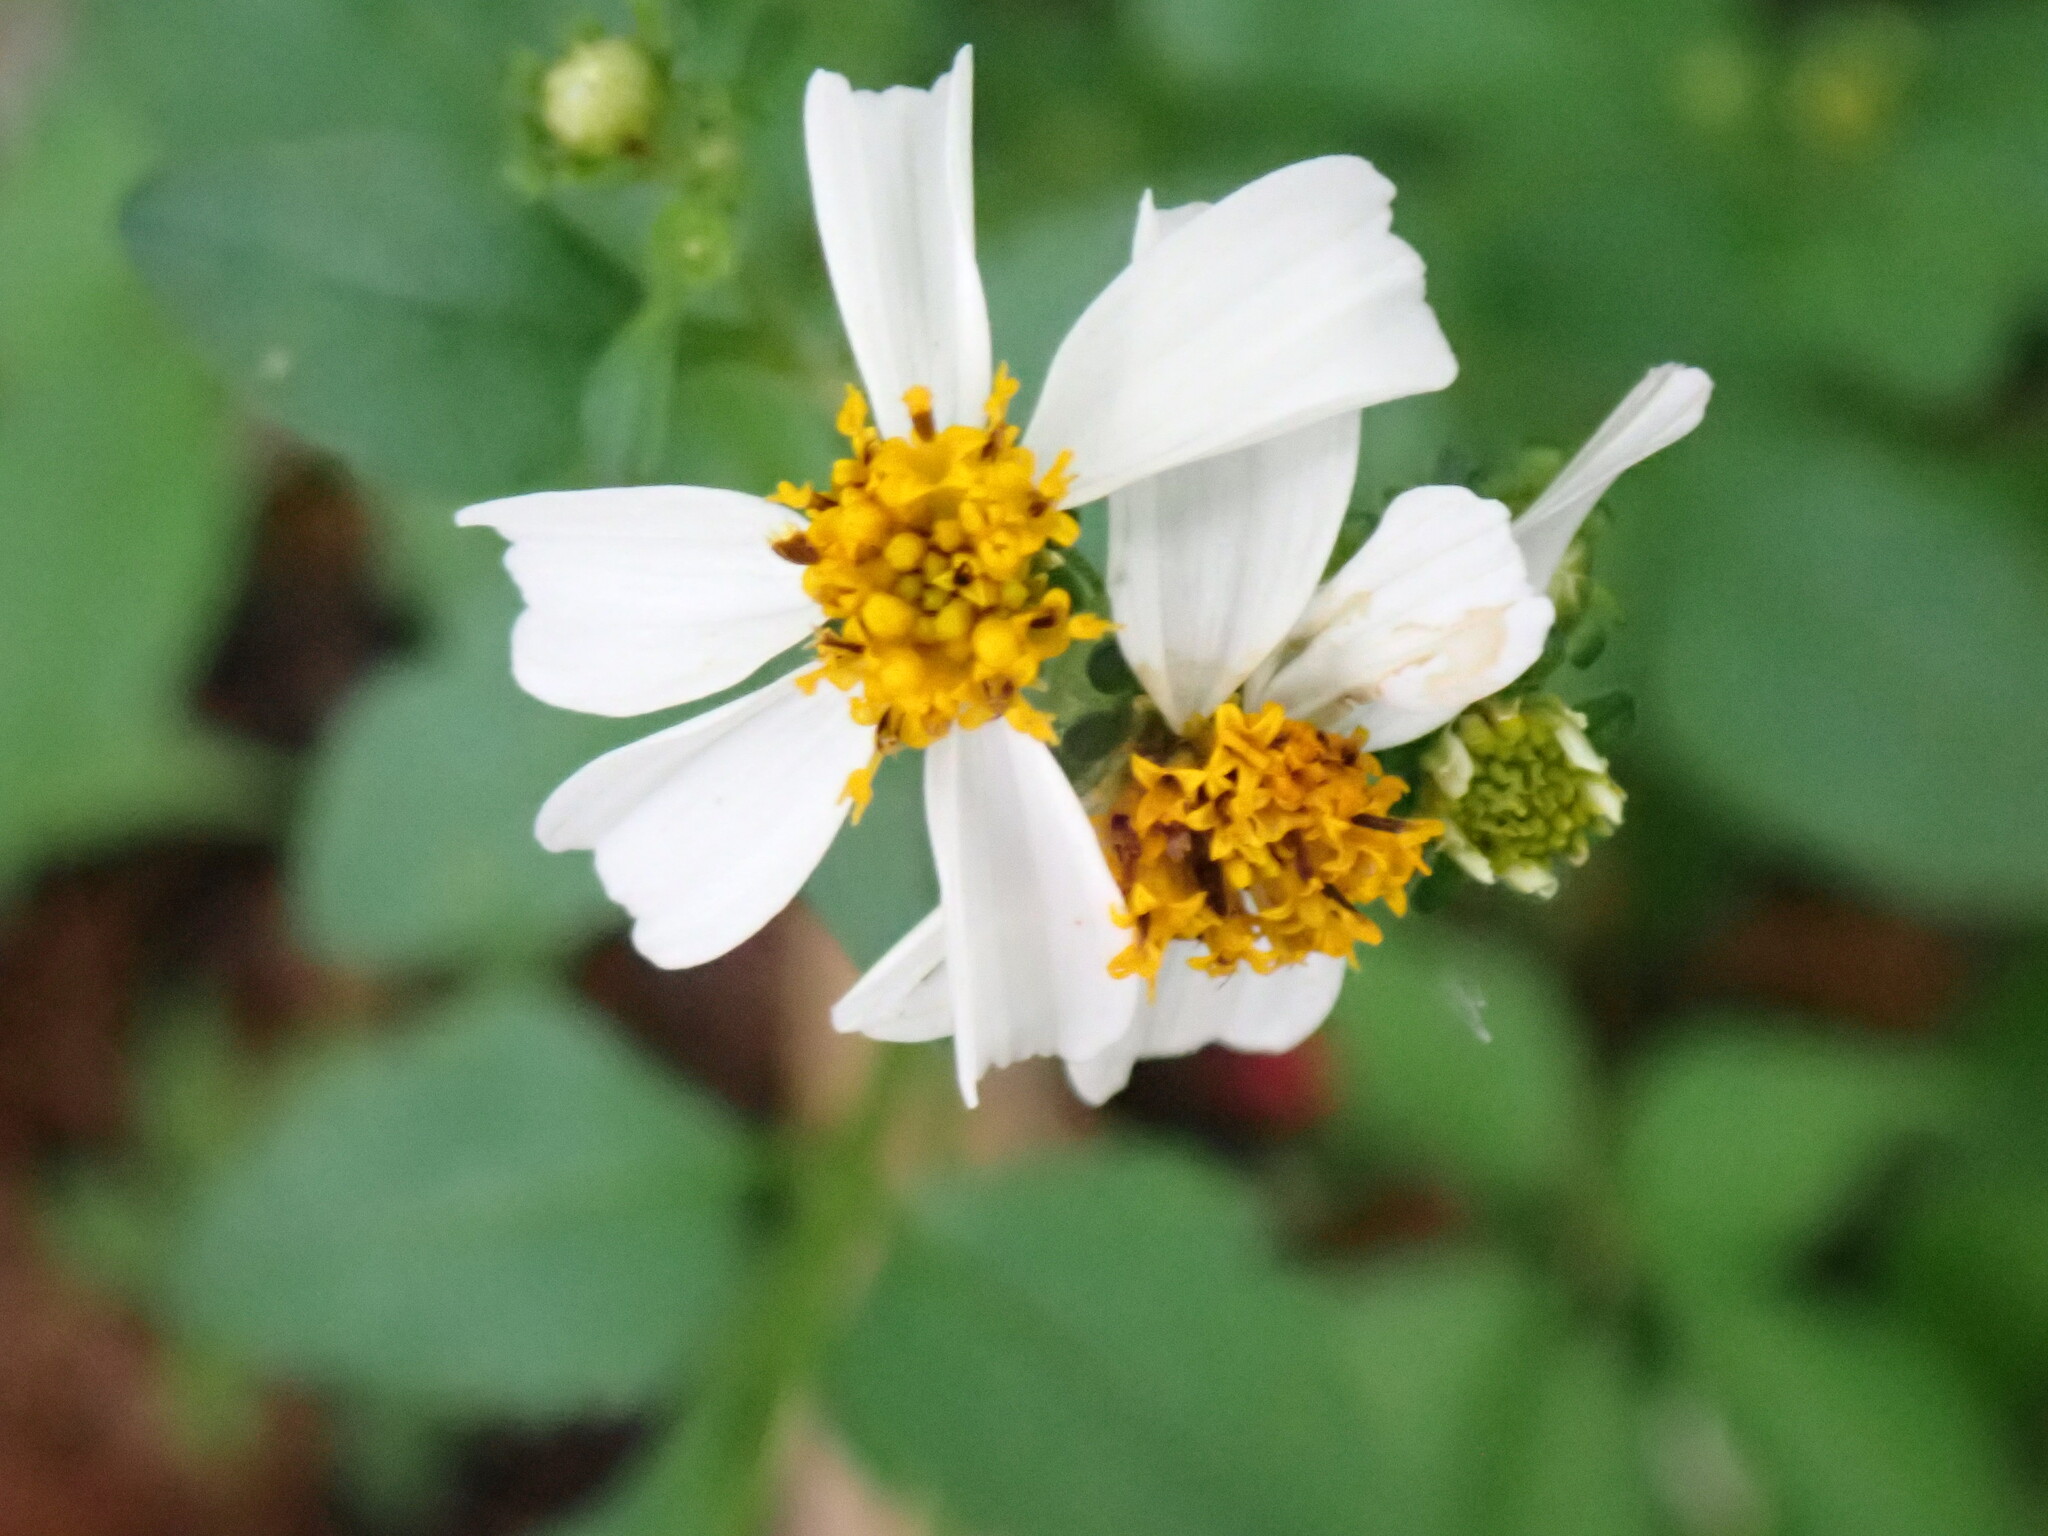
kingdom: Plantae
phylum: Tracheophyta
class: Magnoliopsida
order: Asterales
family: Asteraceae
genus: Bidens
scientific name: Bidens alba
